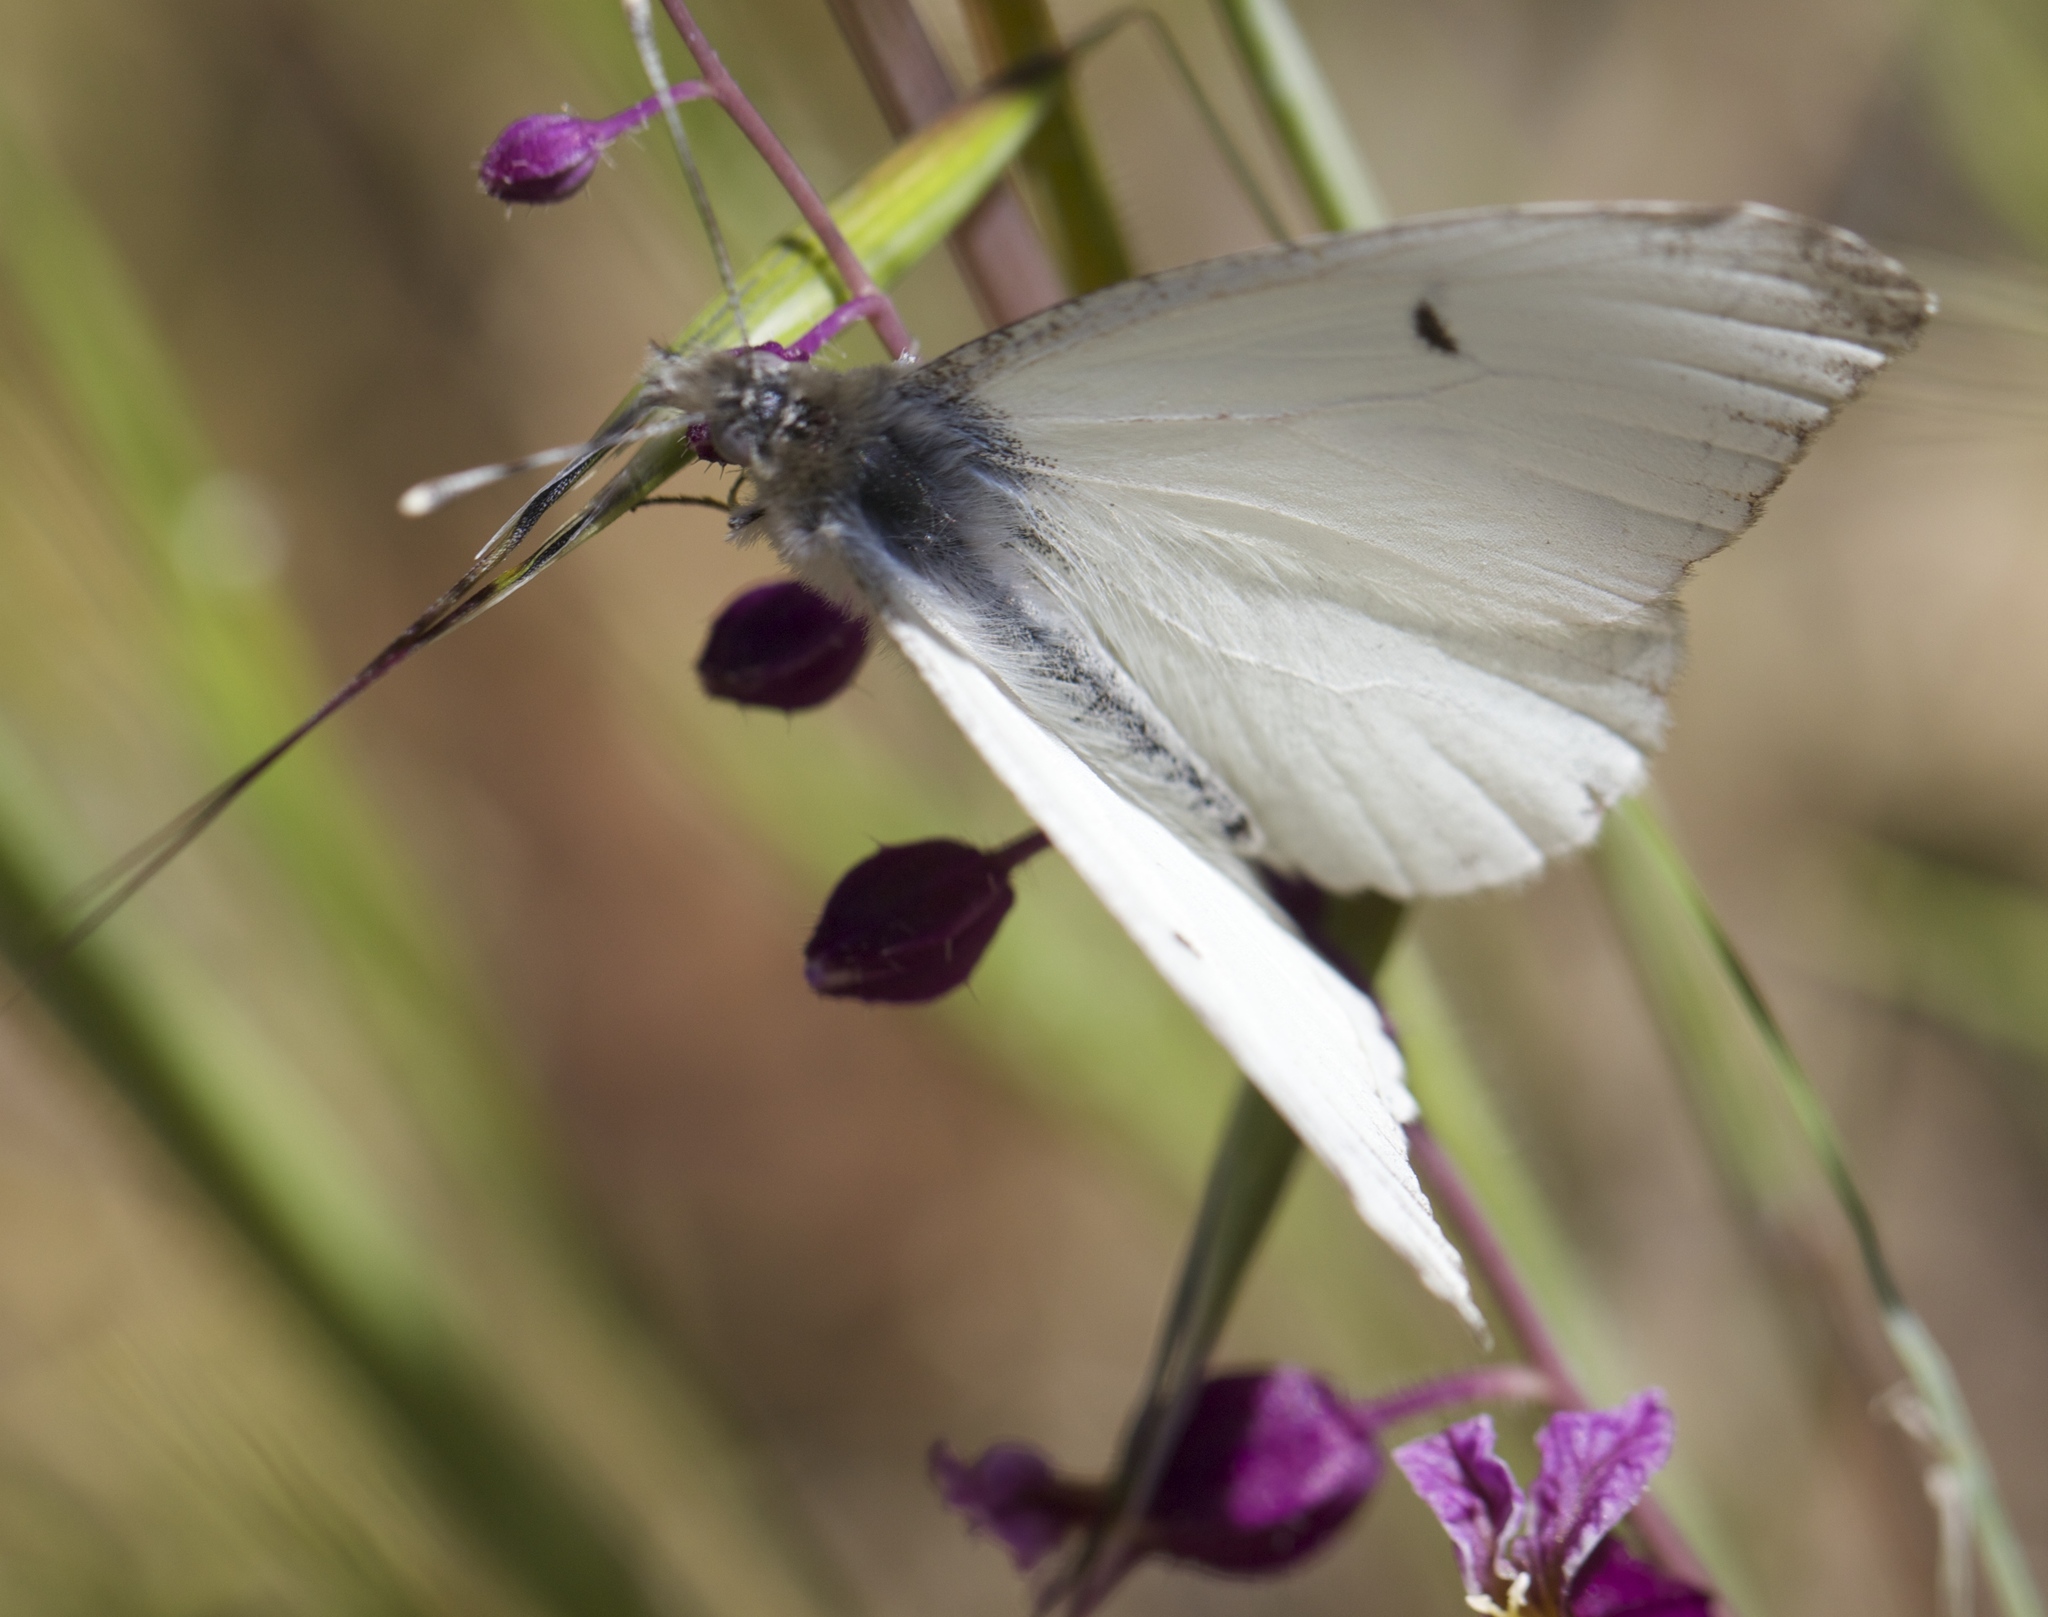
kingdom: Animalia
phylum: Arthropoda
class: Insecta
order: Lepidoptera
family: Pieridae
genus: Anthocharis
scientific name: Anthocharis lanceolata
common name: Gray marble
